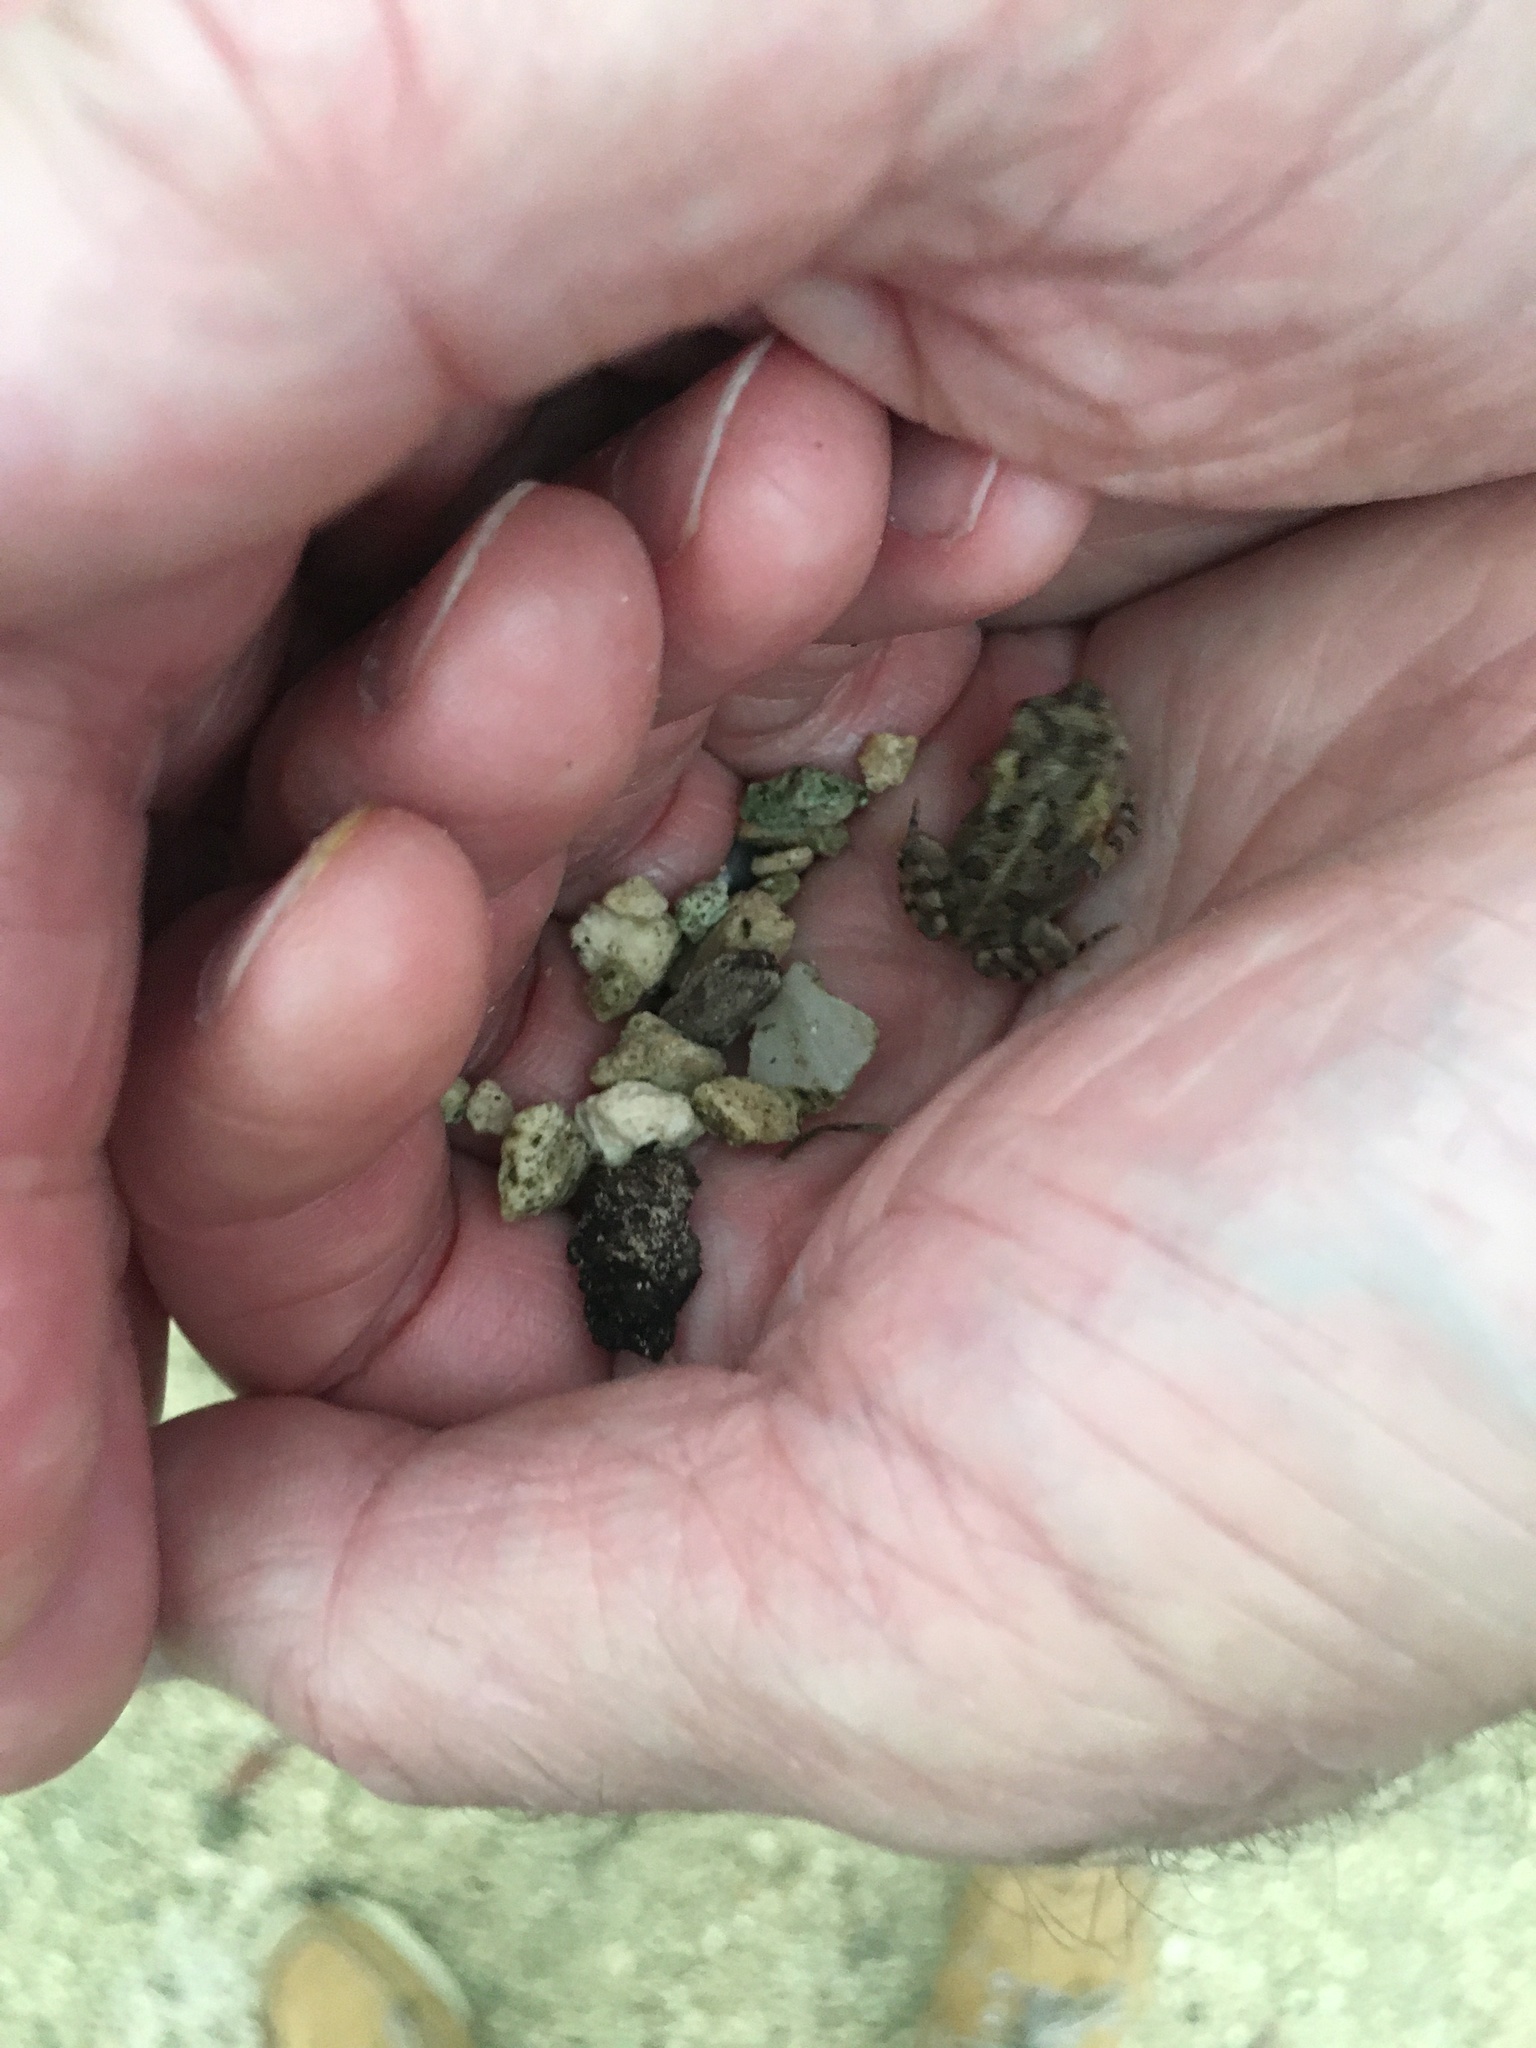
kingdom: Animalia
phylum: Chordata
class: Amphibia
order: Anura
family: Bufonidae
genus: Anaxyrus
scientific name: Anaxyrus terrestris
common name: Southern toad
